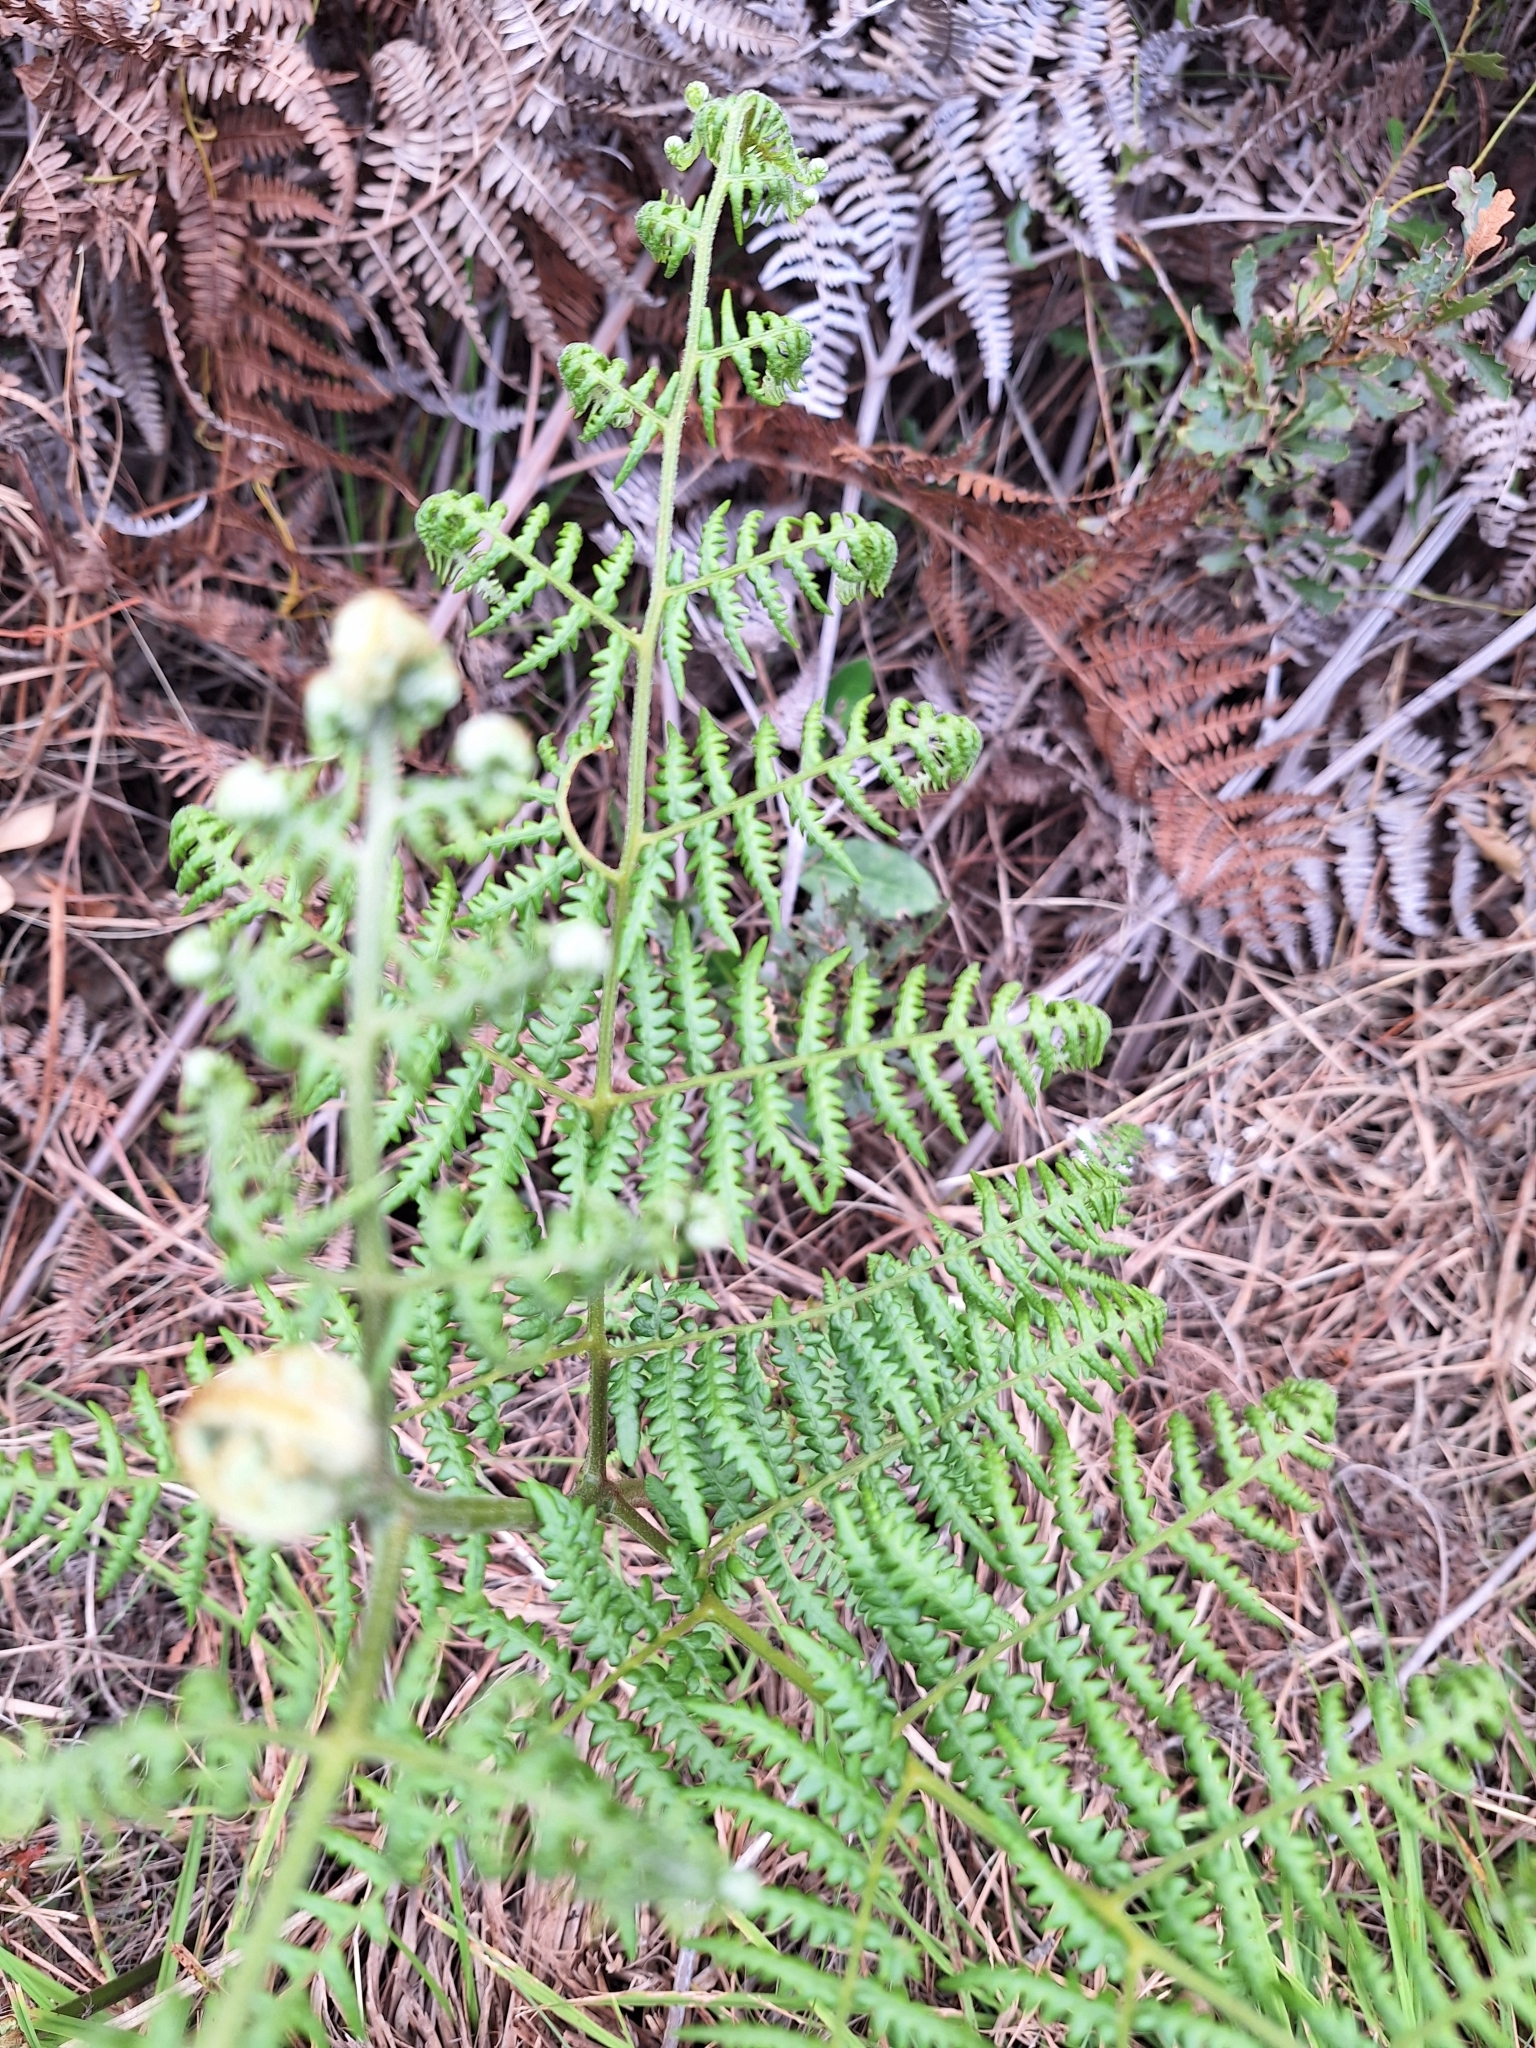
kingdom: Plantae
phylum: Tracheophyta
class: Polypodiopsida
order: Polypodiales
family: Dennstaedtiaceae
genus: Pteridium
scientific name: Pteridium aquilinum
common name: Bracken
